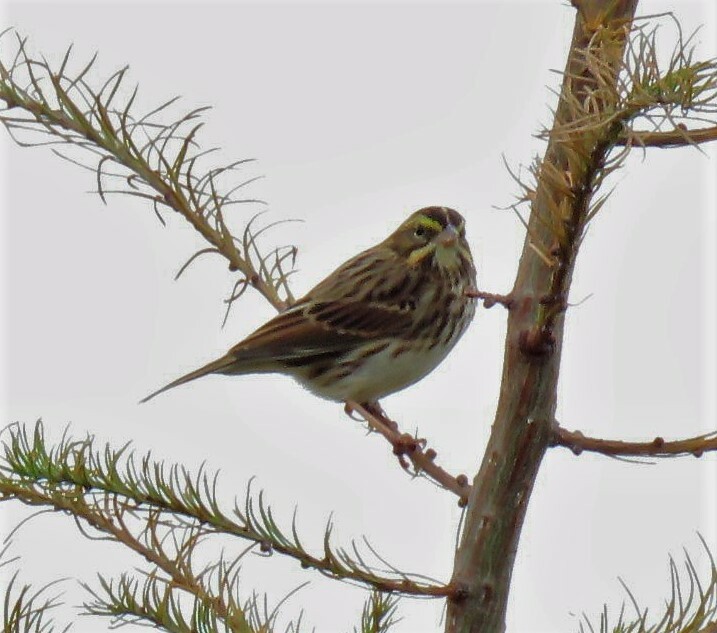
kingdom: Animalia
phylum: Chordata
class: Aves
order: Passeriformes
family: Passerellidae
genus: Passerculus
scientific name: Passerculus sandwichensis
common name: Savannah sparrow
